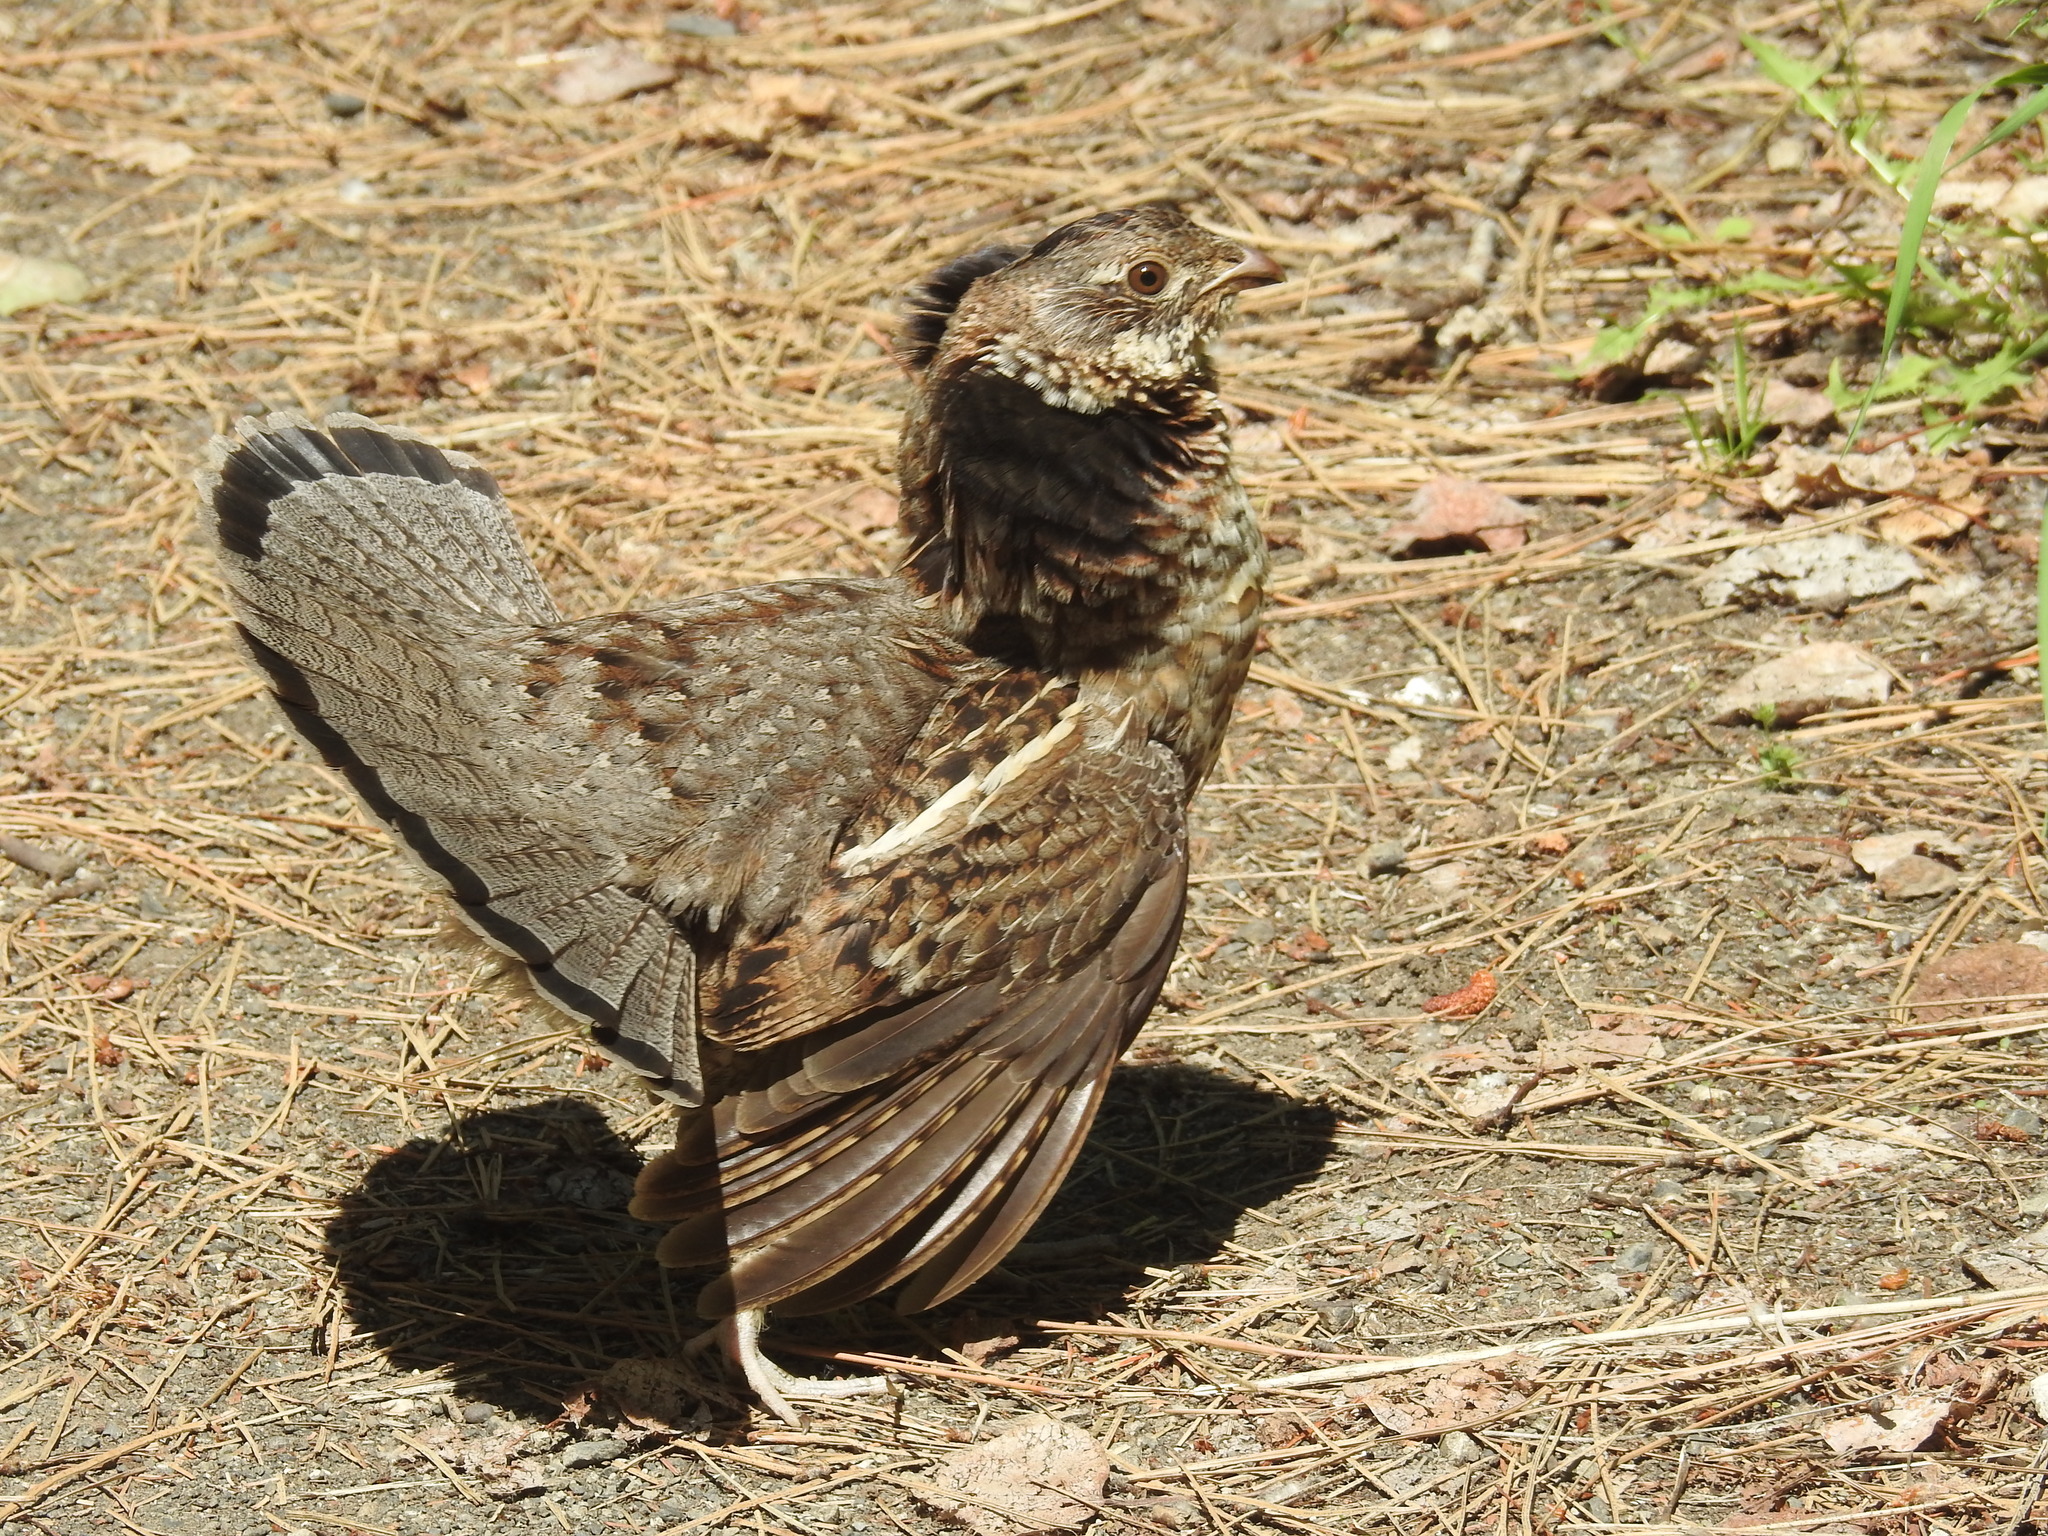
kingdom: Animalia
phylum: Chordata
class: Aves
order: Galliformes
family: Phasianidae
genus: Bonasa
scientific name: Bonasa umbellus
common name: Ruffed grouse
